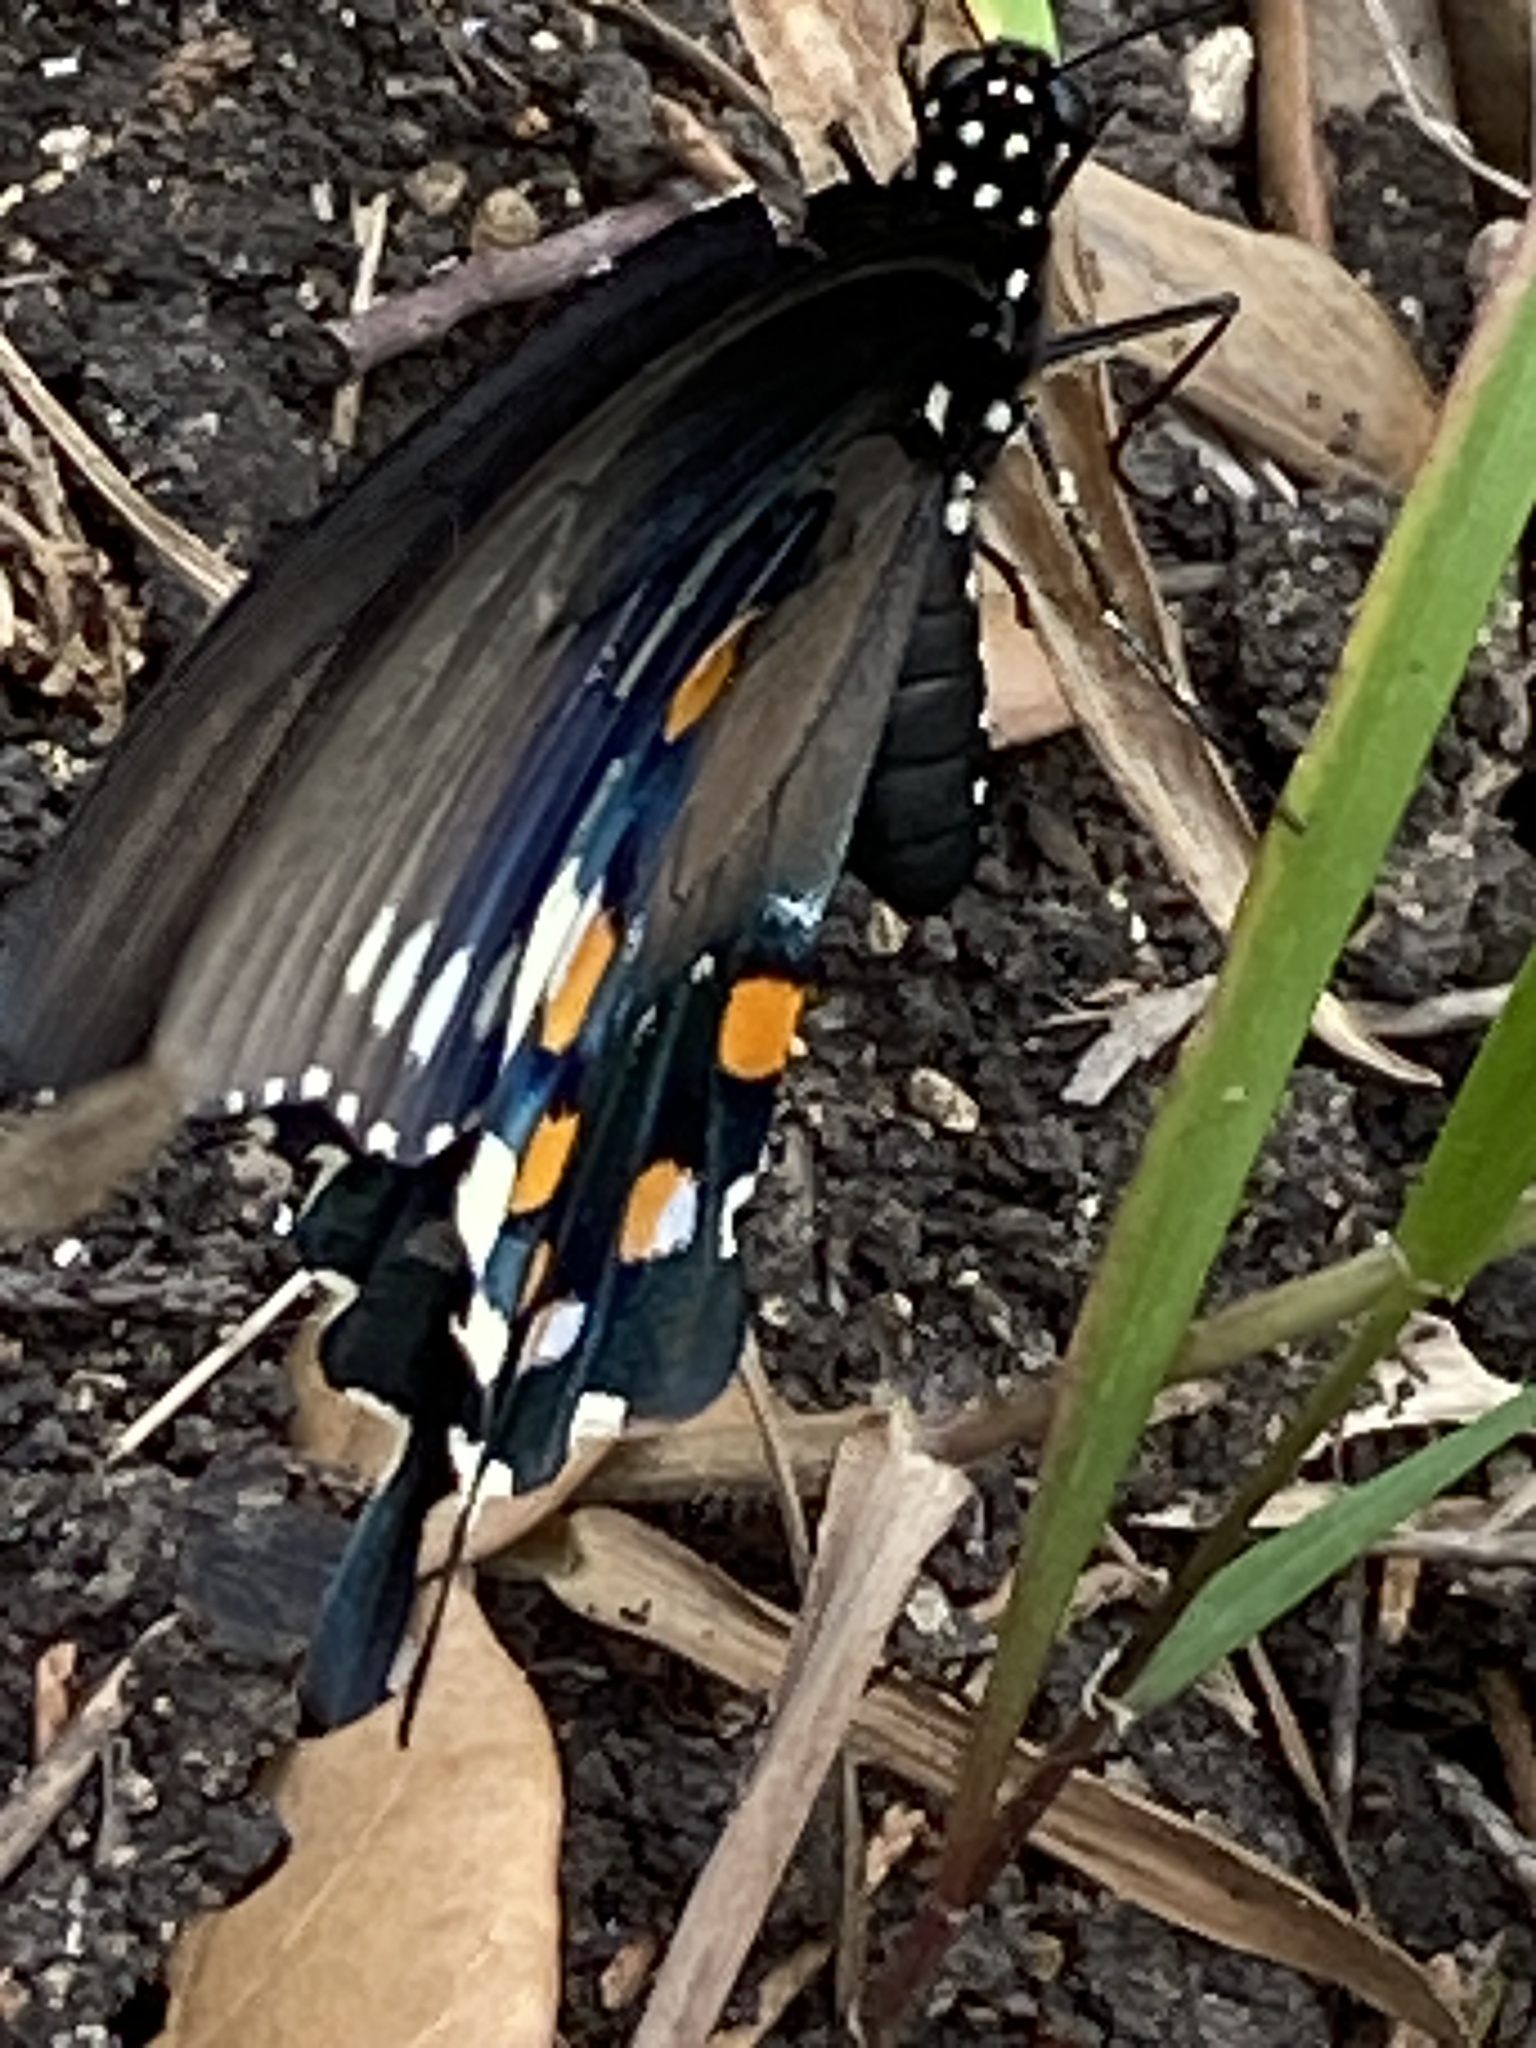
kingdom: Animalia
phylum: Arthropoda
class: Insecta
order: Lepidoptera
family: Papilionidae
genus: Battus
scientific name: Battus philenor
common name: Pipevine swallowtail
